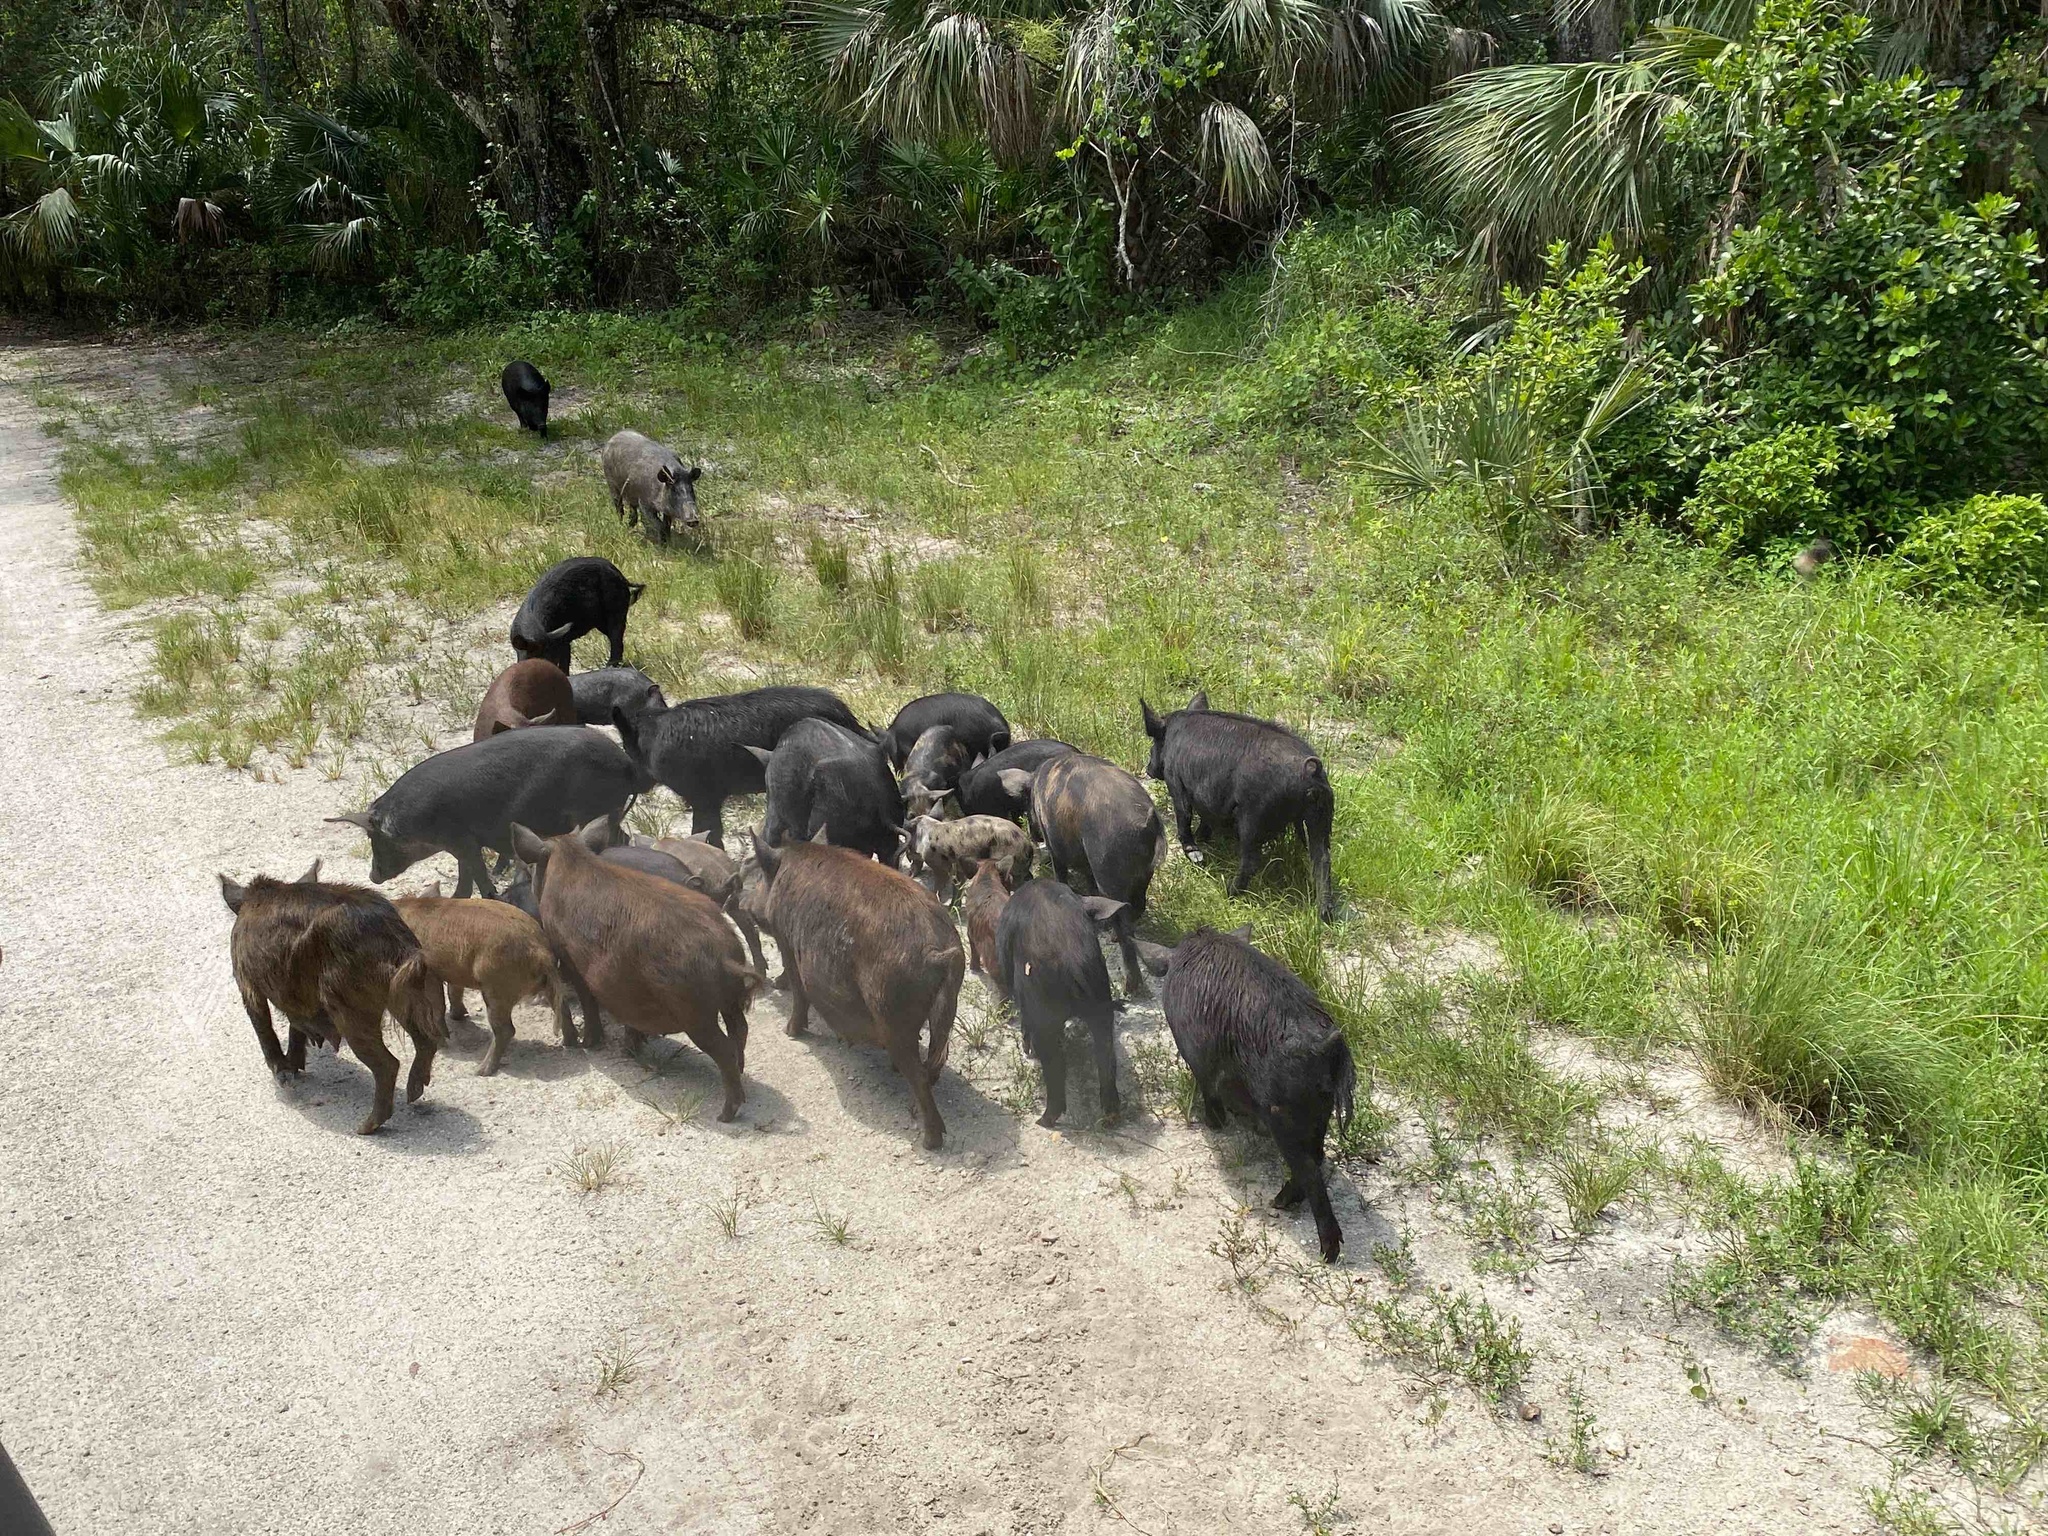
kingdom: Animalia
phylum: Chordata
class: Mammalia
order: Artiodactyla
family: Suidae
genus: Sus
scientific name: Sus scrofa
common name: Wild boar
